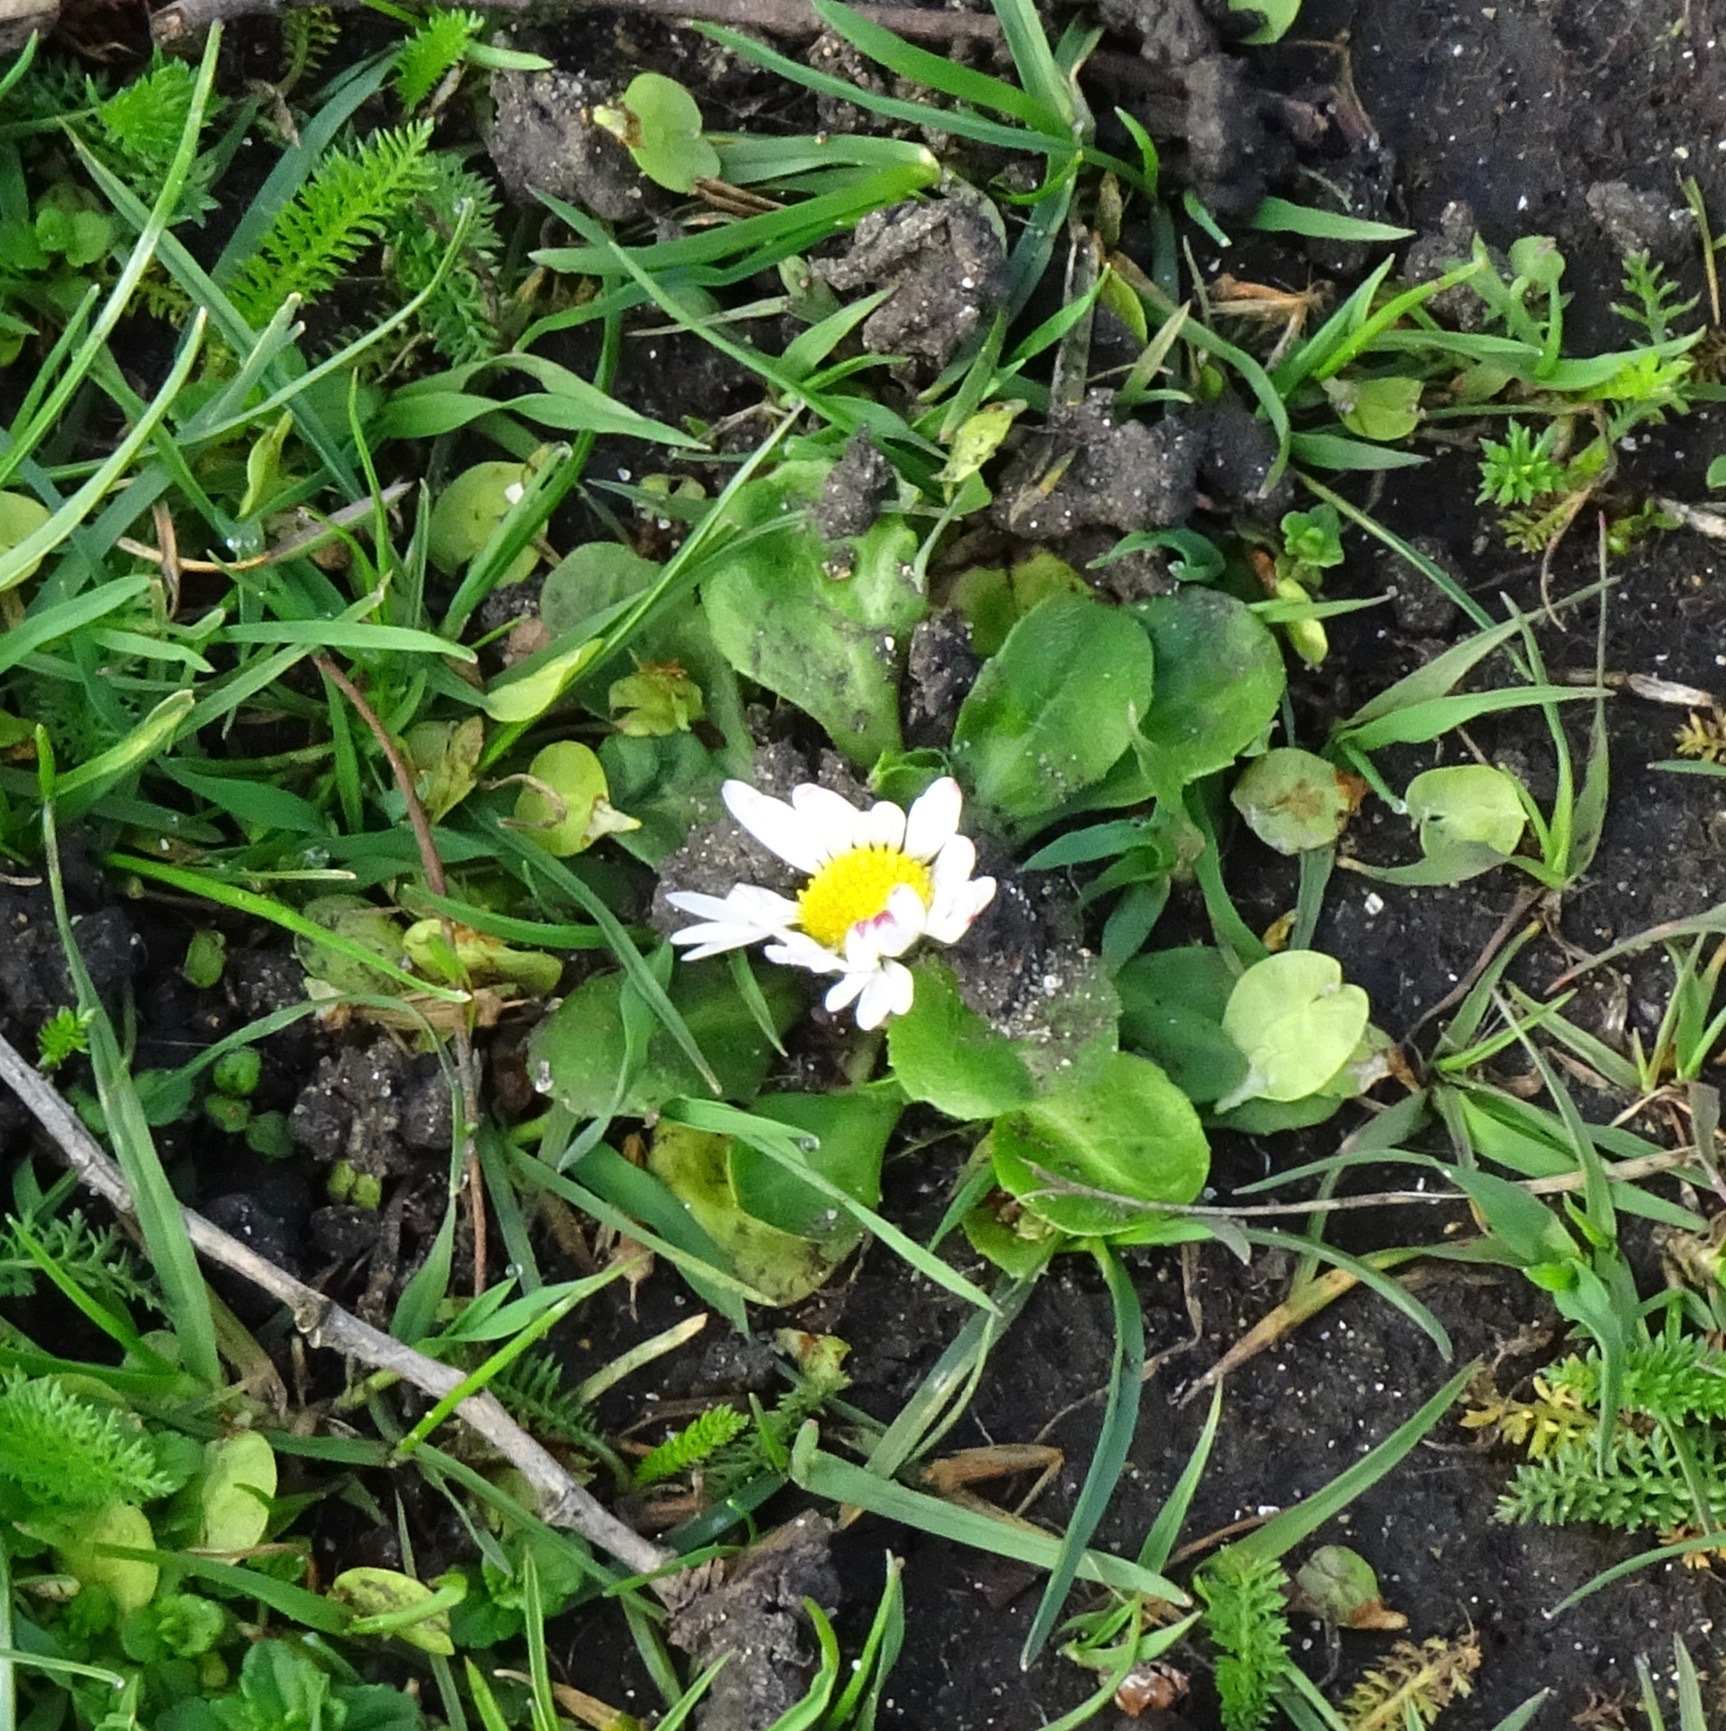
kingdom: Plantae
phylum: Tracheophyta
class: Magnoliopsida
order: Asterales
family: Asteraceae
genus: Bellis
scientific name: Bellis perennis
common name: Lawndaisy
